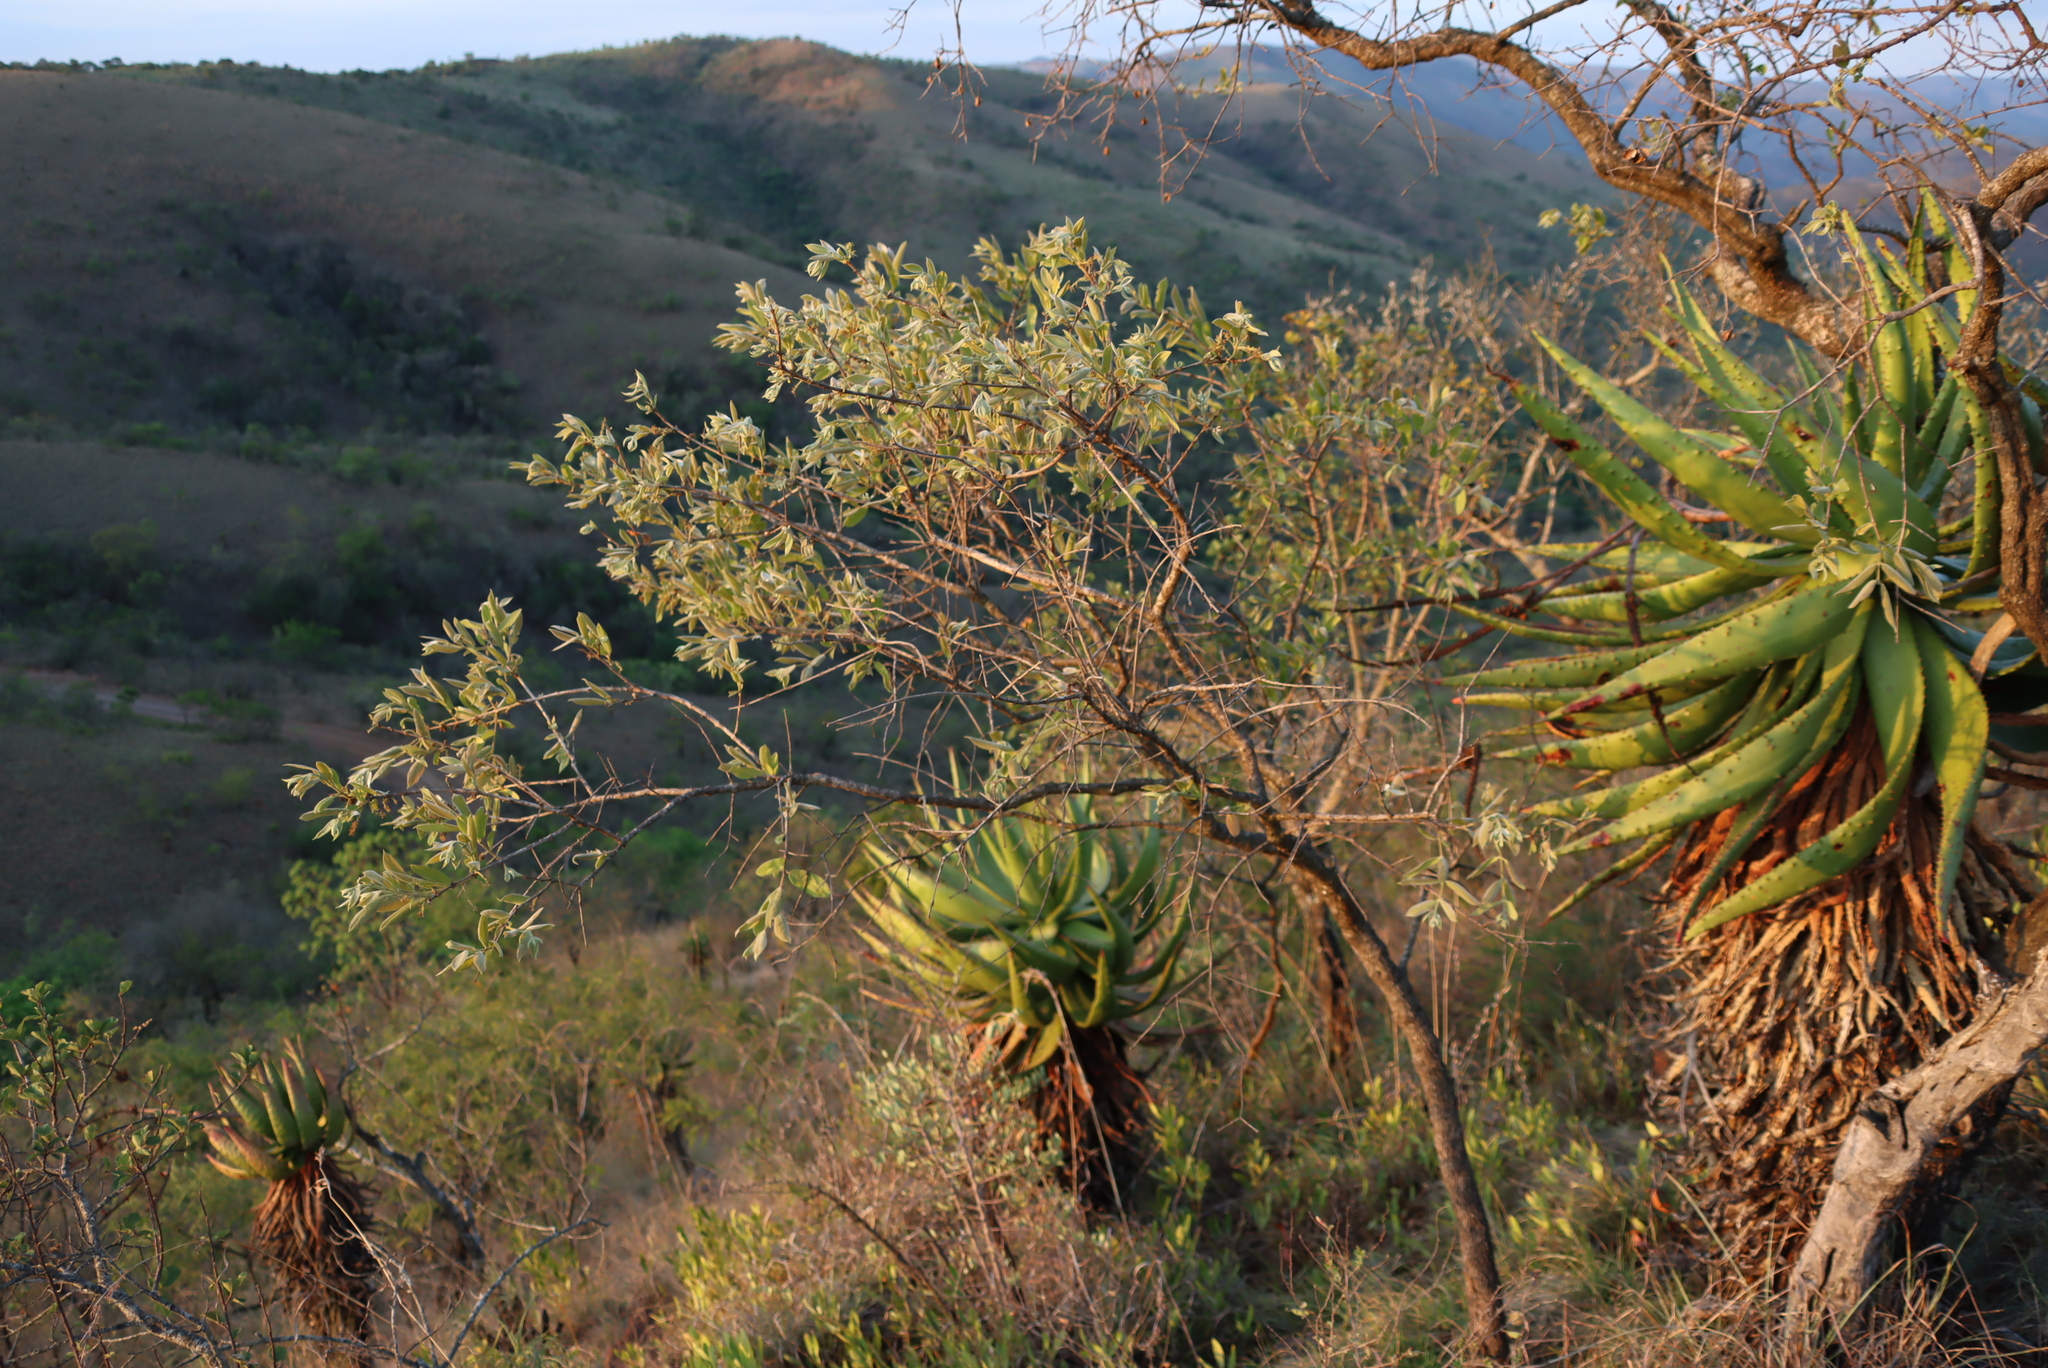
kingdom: Plantae
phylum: Tracheophyta
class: Magnoliopsida
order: Myrtales
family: Combretaceae
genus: Combretum
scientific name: Combretum molle
